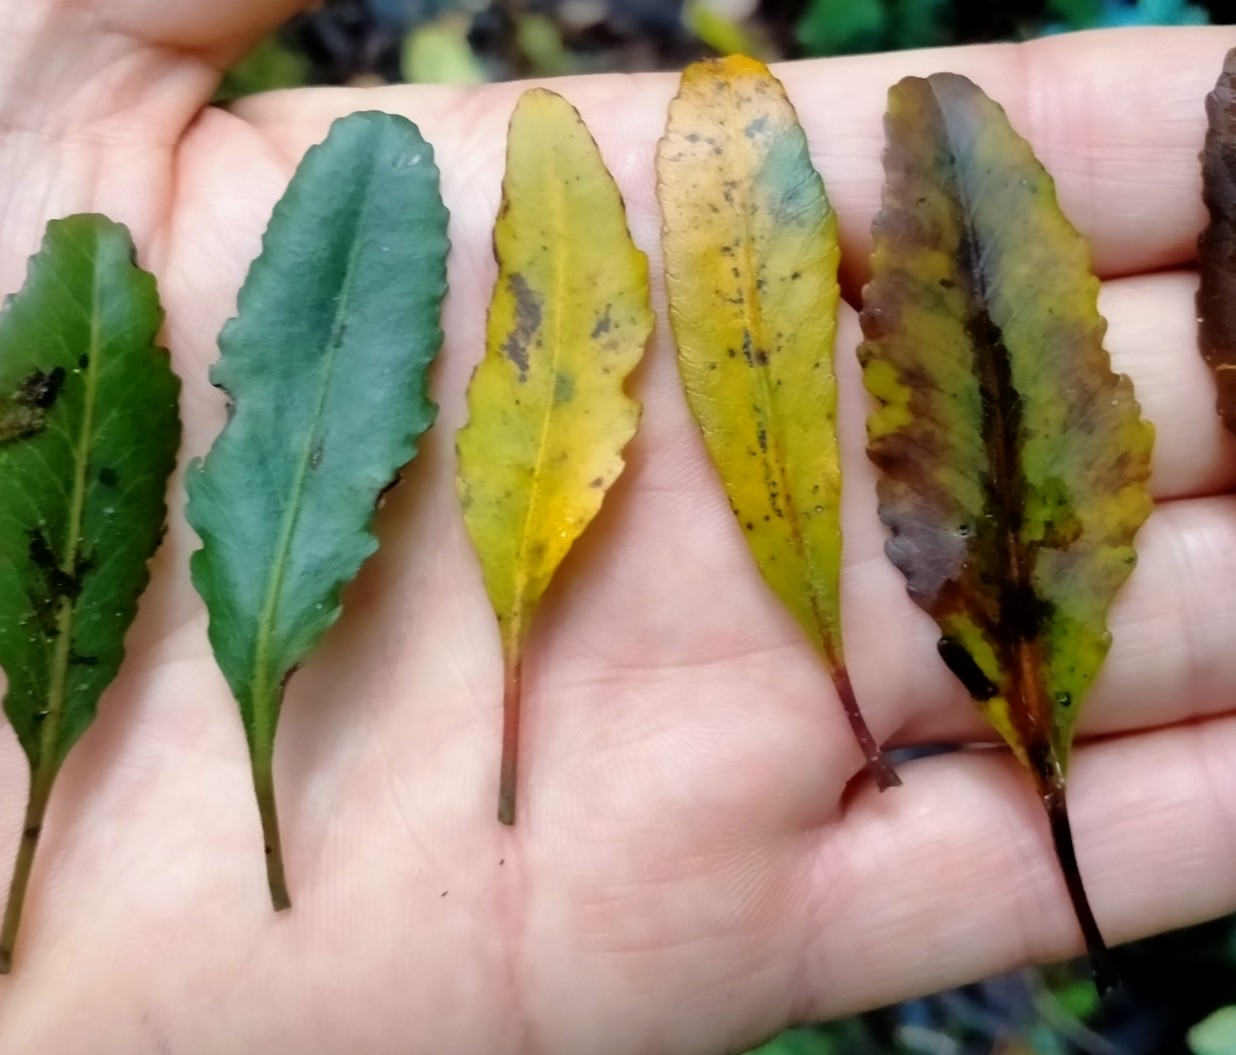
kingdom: Plantae
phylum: Tracheophyta
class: Magnoliopsida
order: Oxalidales
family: Elaeocarpaceae
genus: Elaeocarpus
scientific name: Elaeocarpus hookerianus
